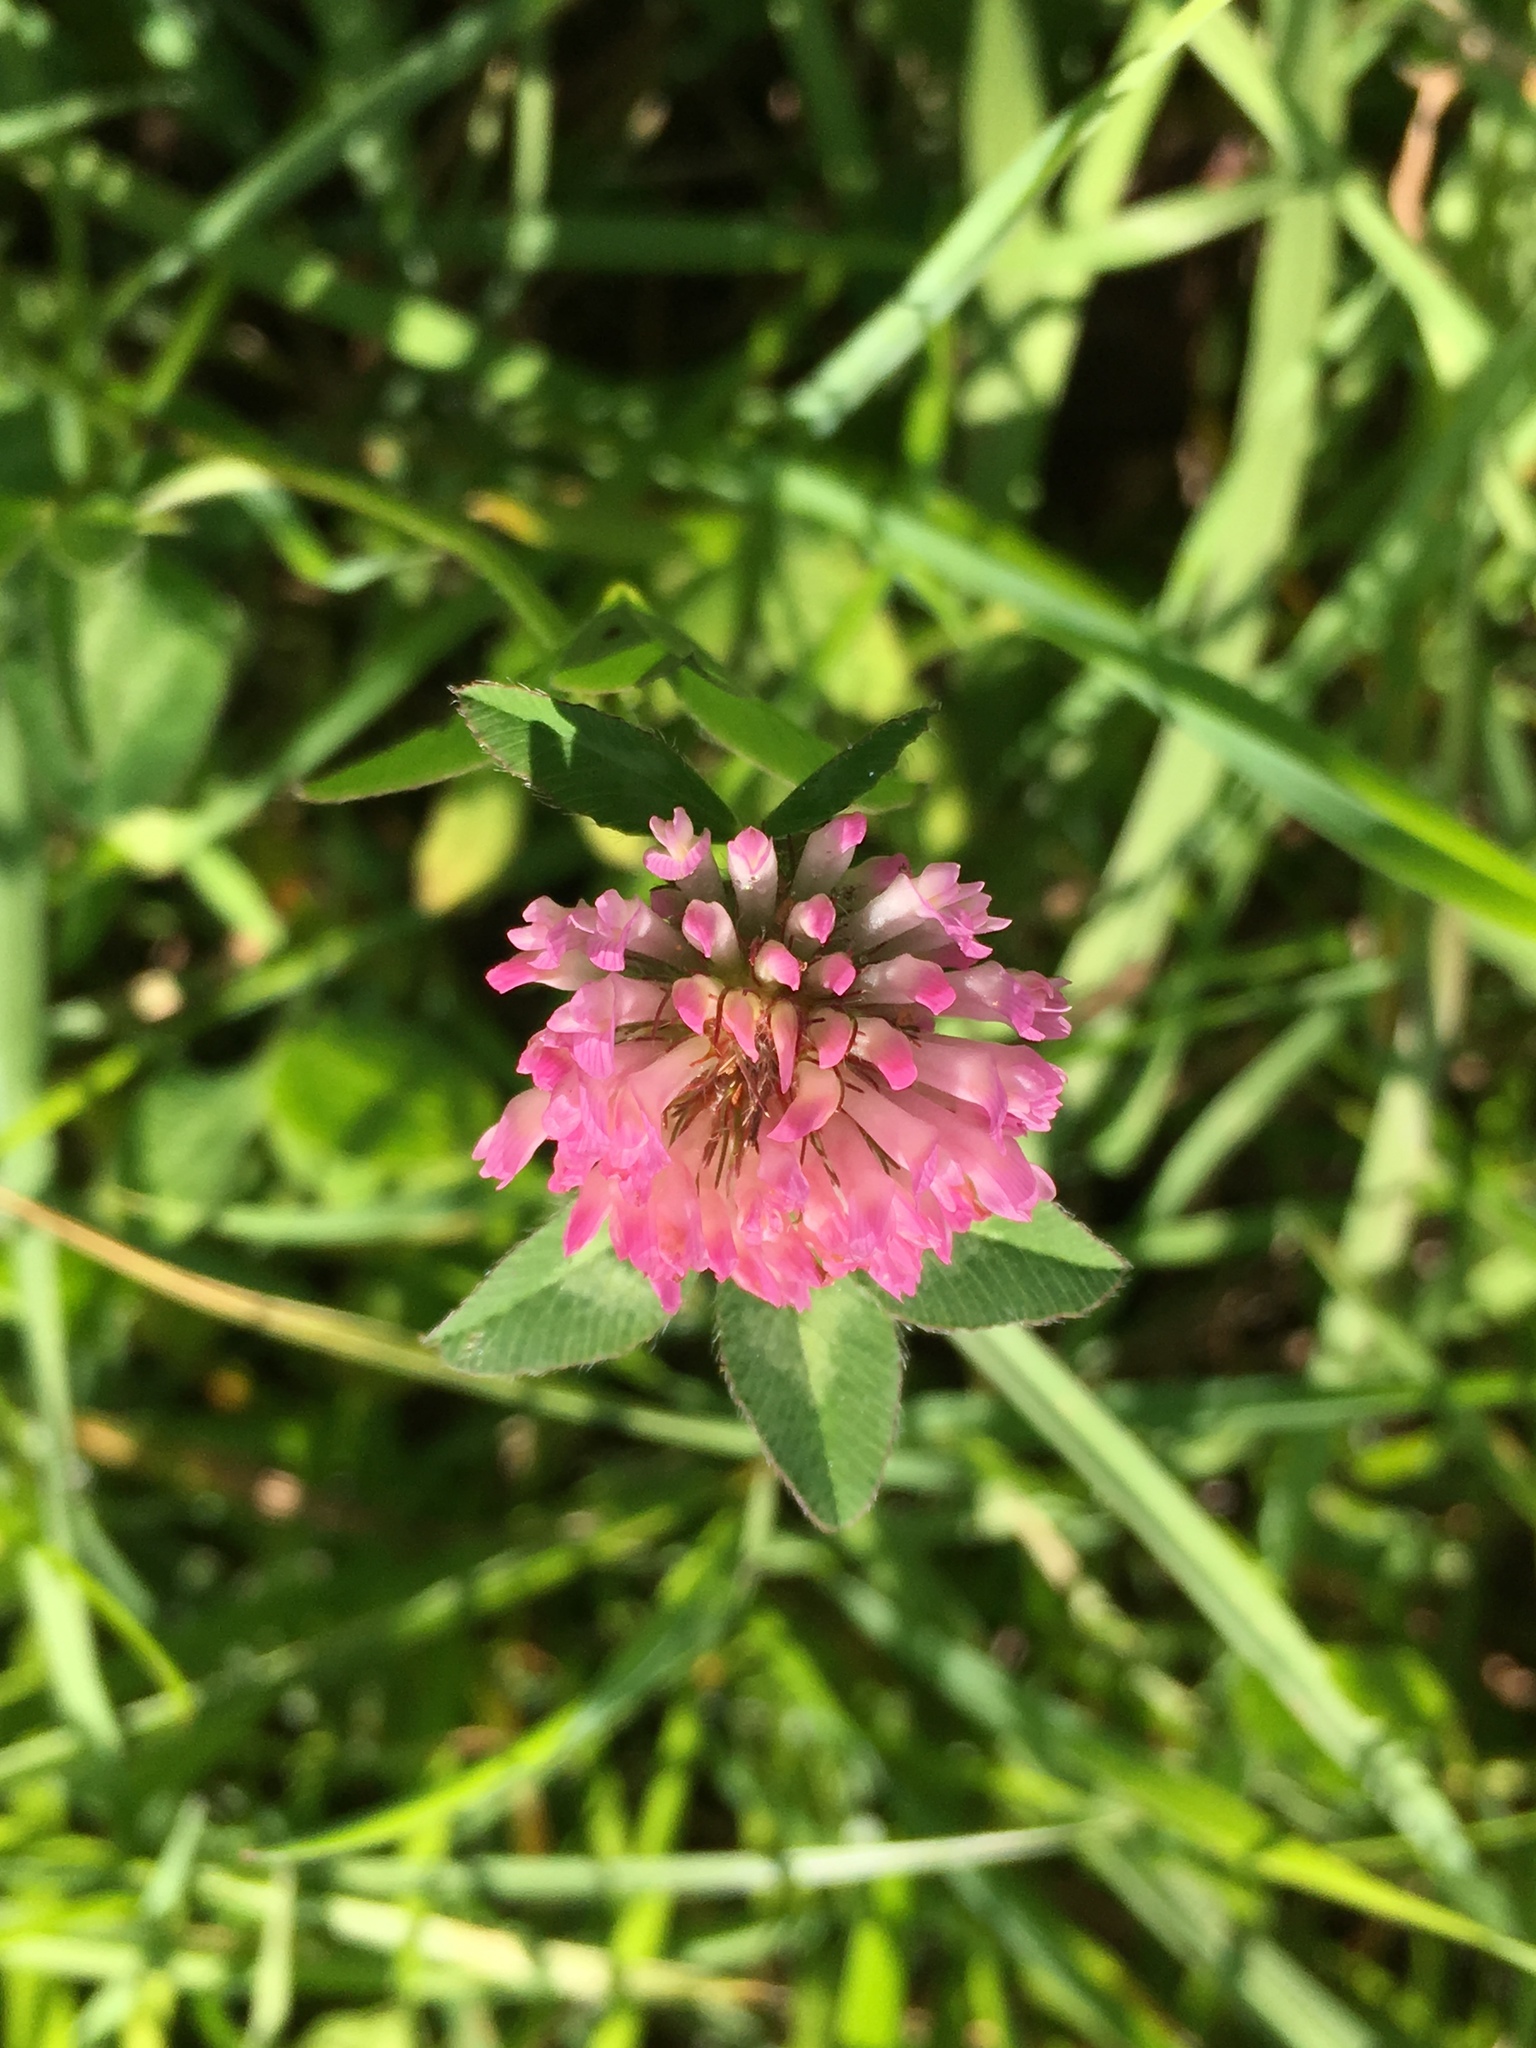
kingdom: Plantae
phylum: Tracheophyta
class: Magnoliopsida
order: Fabales
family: Fabaceae
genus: Trifolium
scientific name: Trifolium pratense
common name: Red clover
